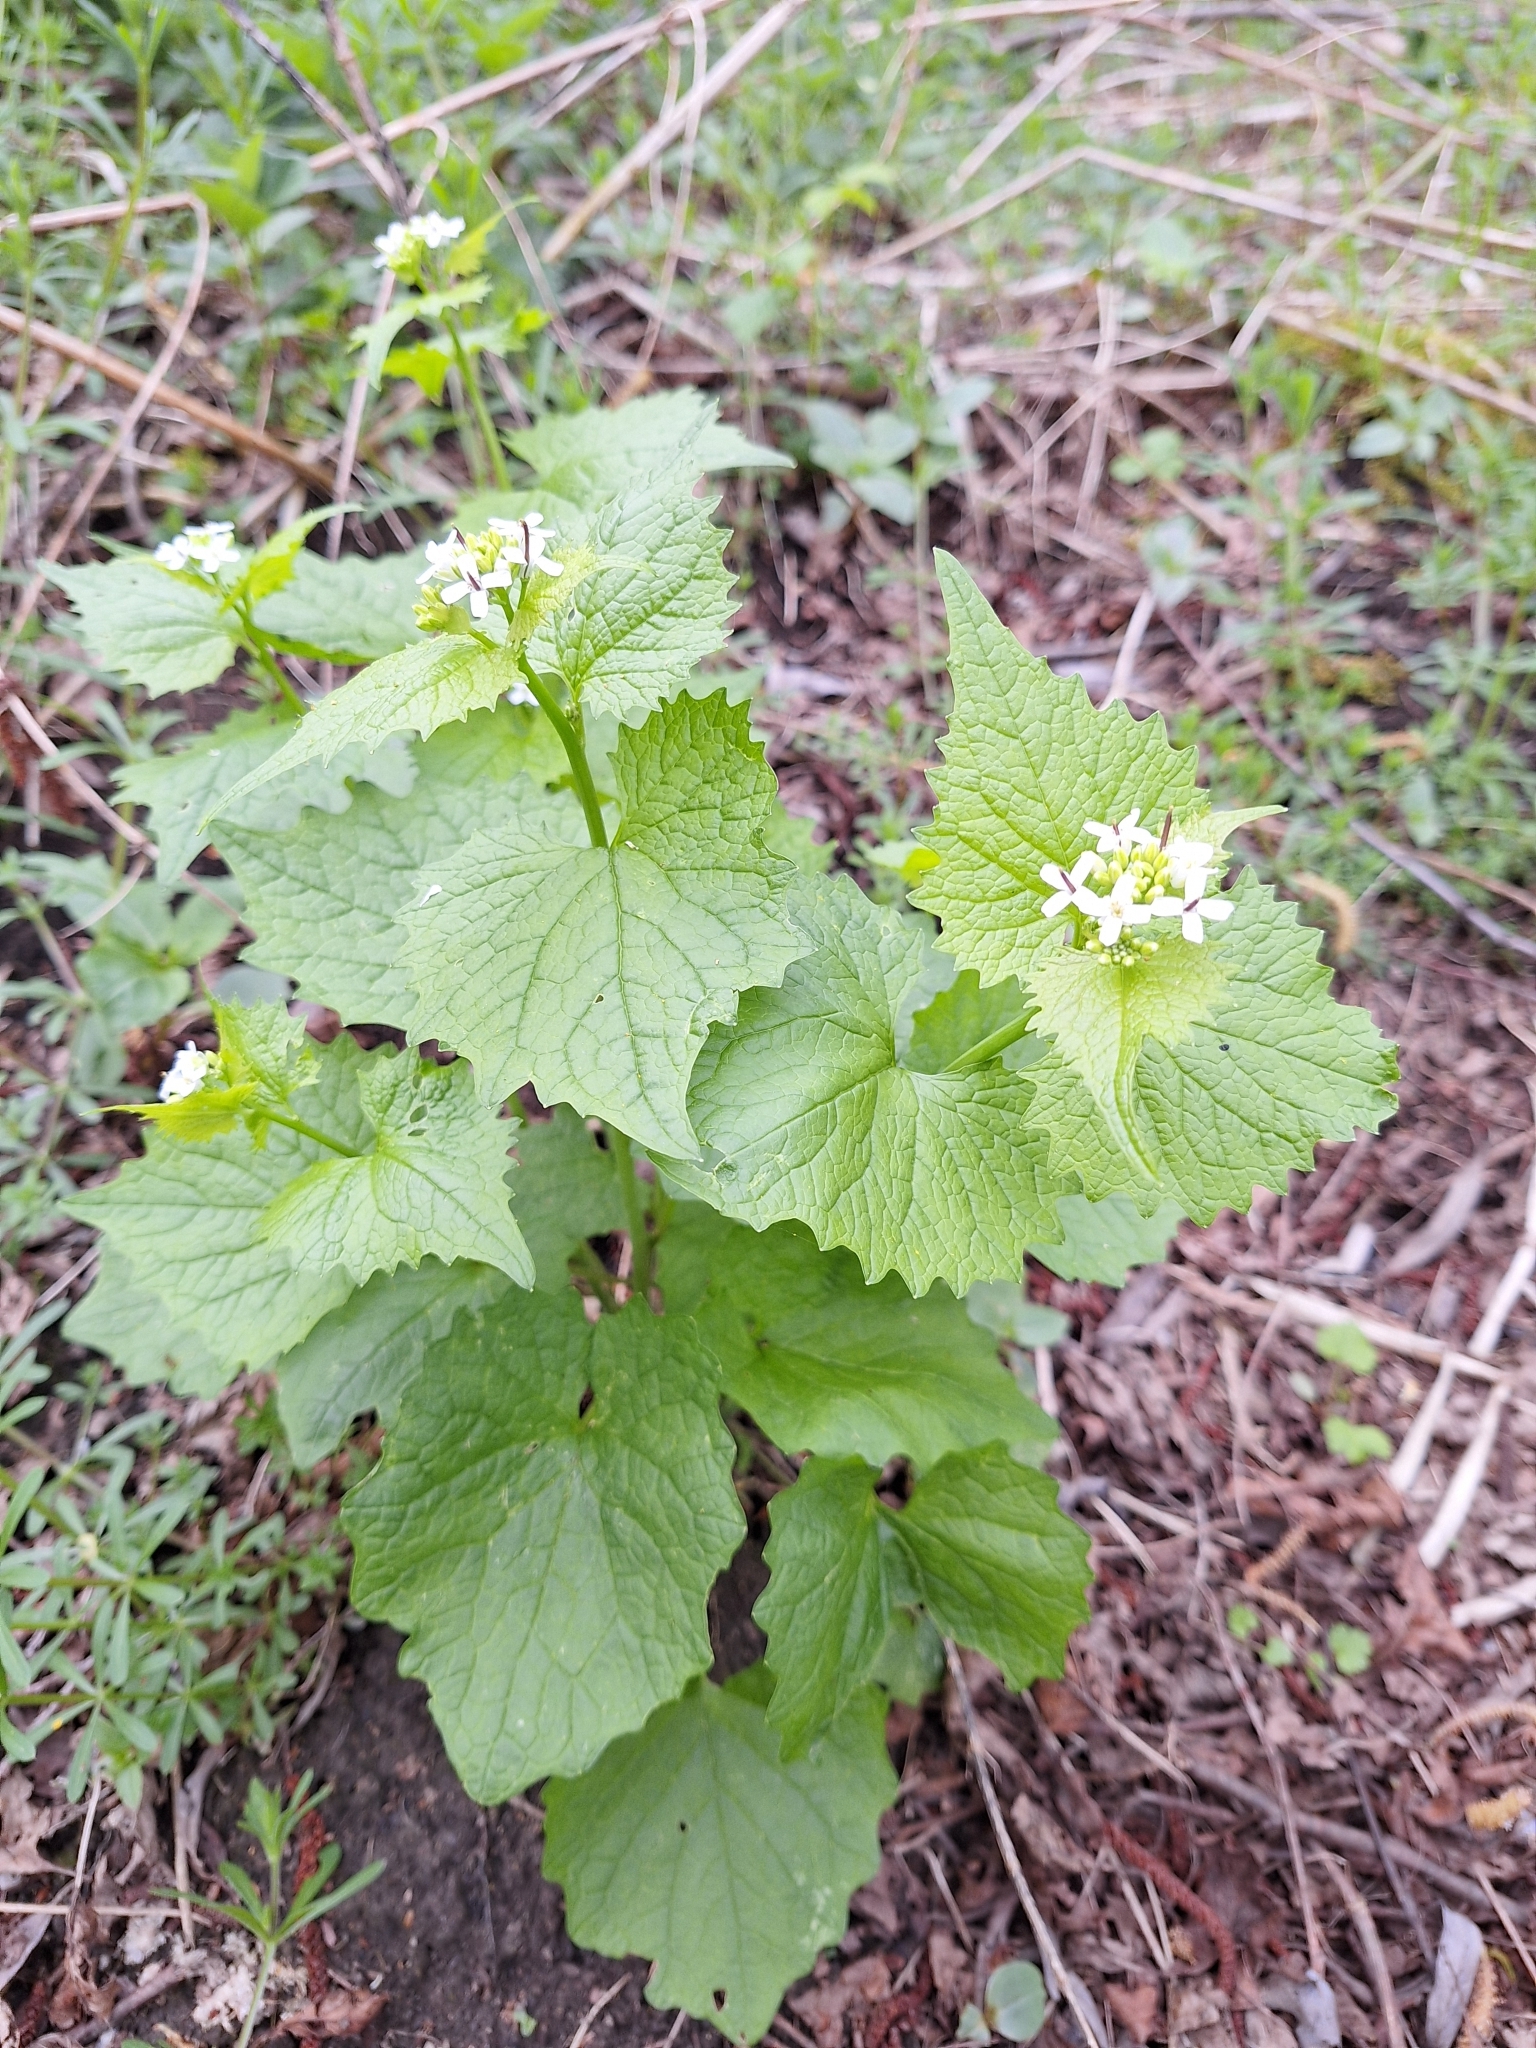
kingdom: Plantae
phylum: Tracheophyta
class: Magnoliopsida
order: Brassicales
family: Brassicaceae
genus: Alliaria
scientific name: Alliaria petiolata
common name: Garlic mustard
